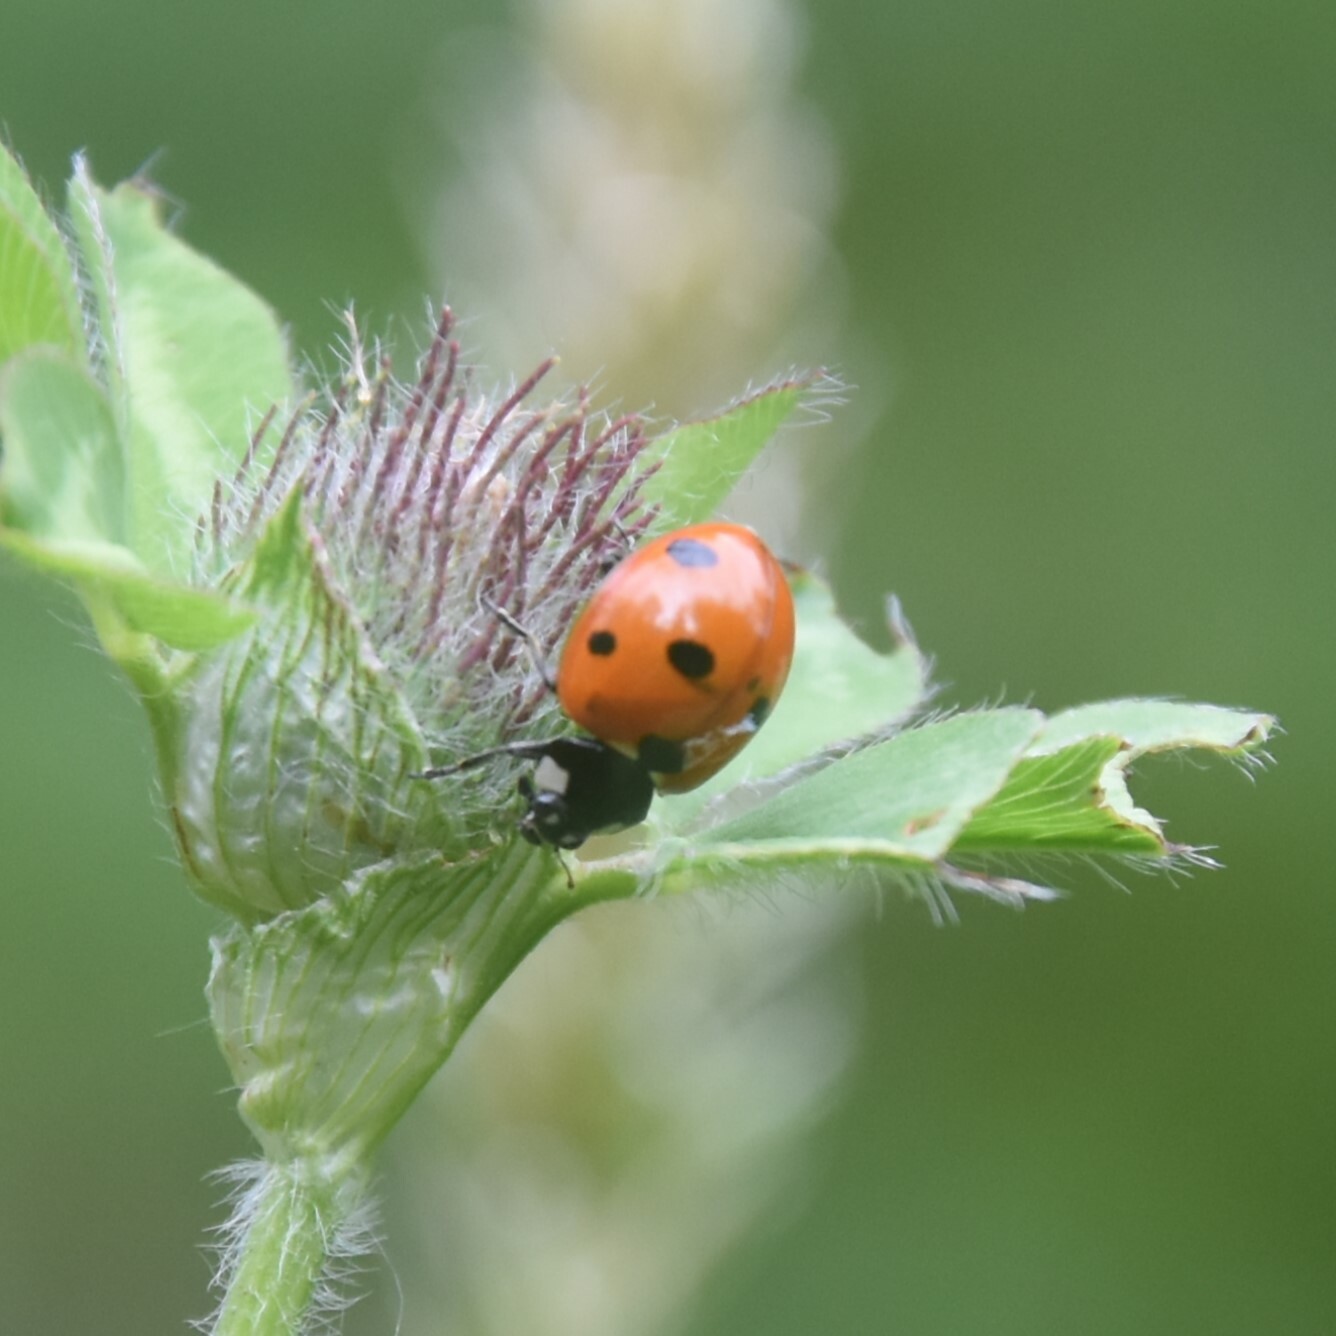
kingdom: Animalia
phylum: Arthropoda
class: Insecta
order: Coleoptera
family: Coccinellidae
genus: Coccinella
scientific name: Coccinella septempunctata
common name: Sevenspotted lady beetle
